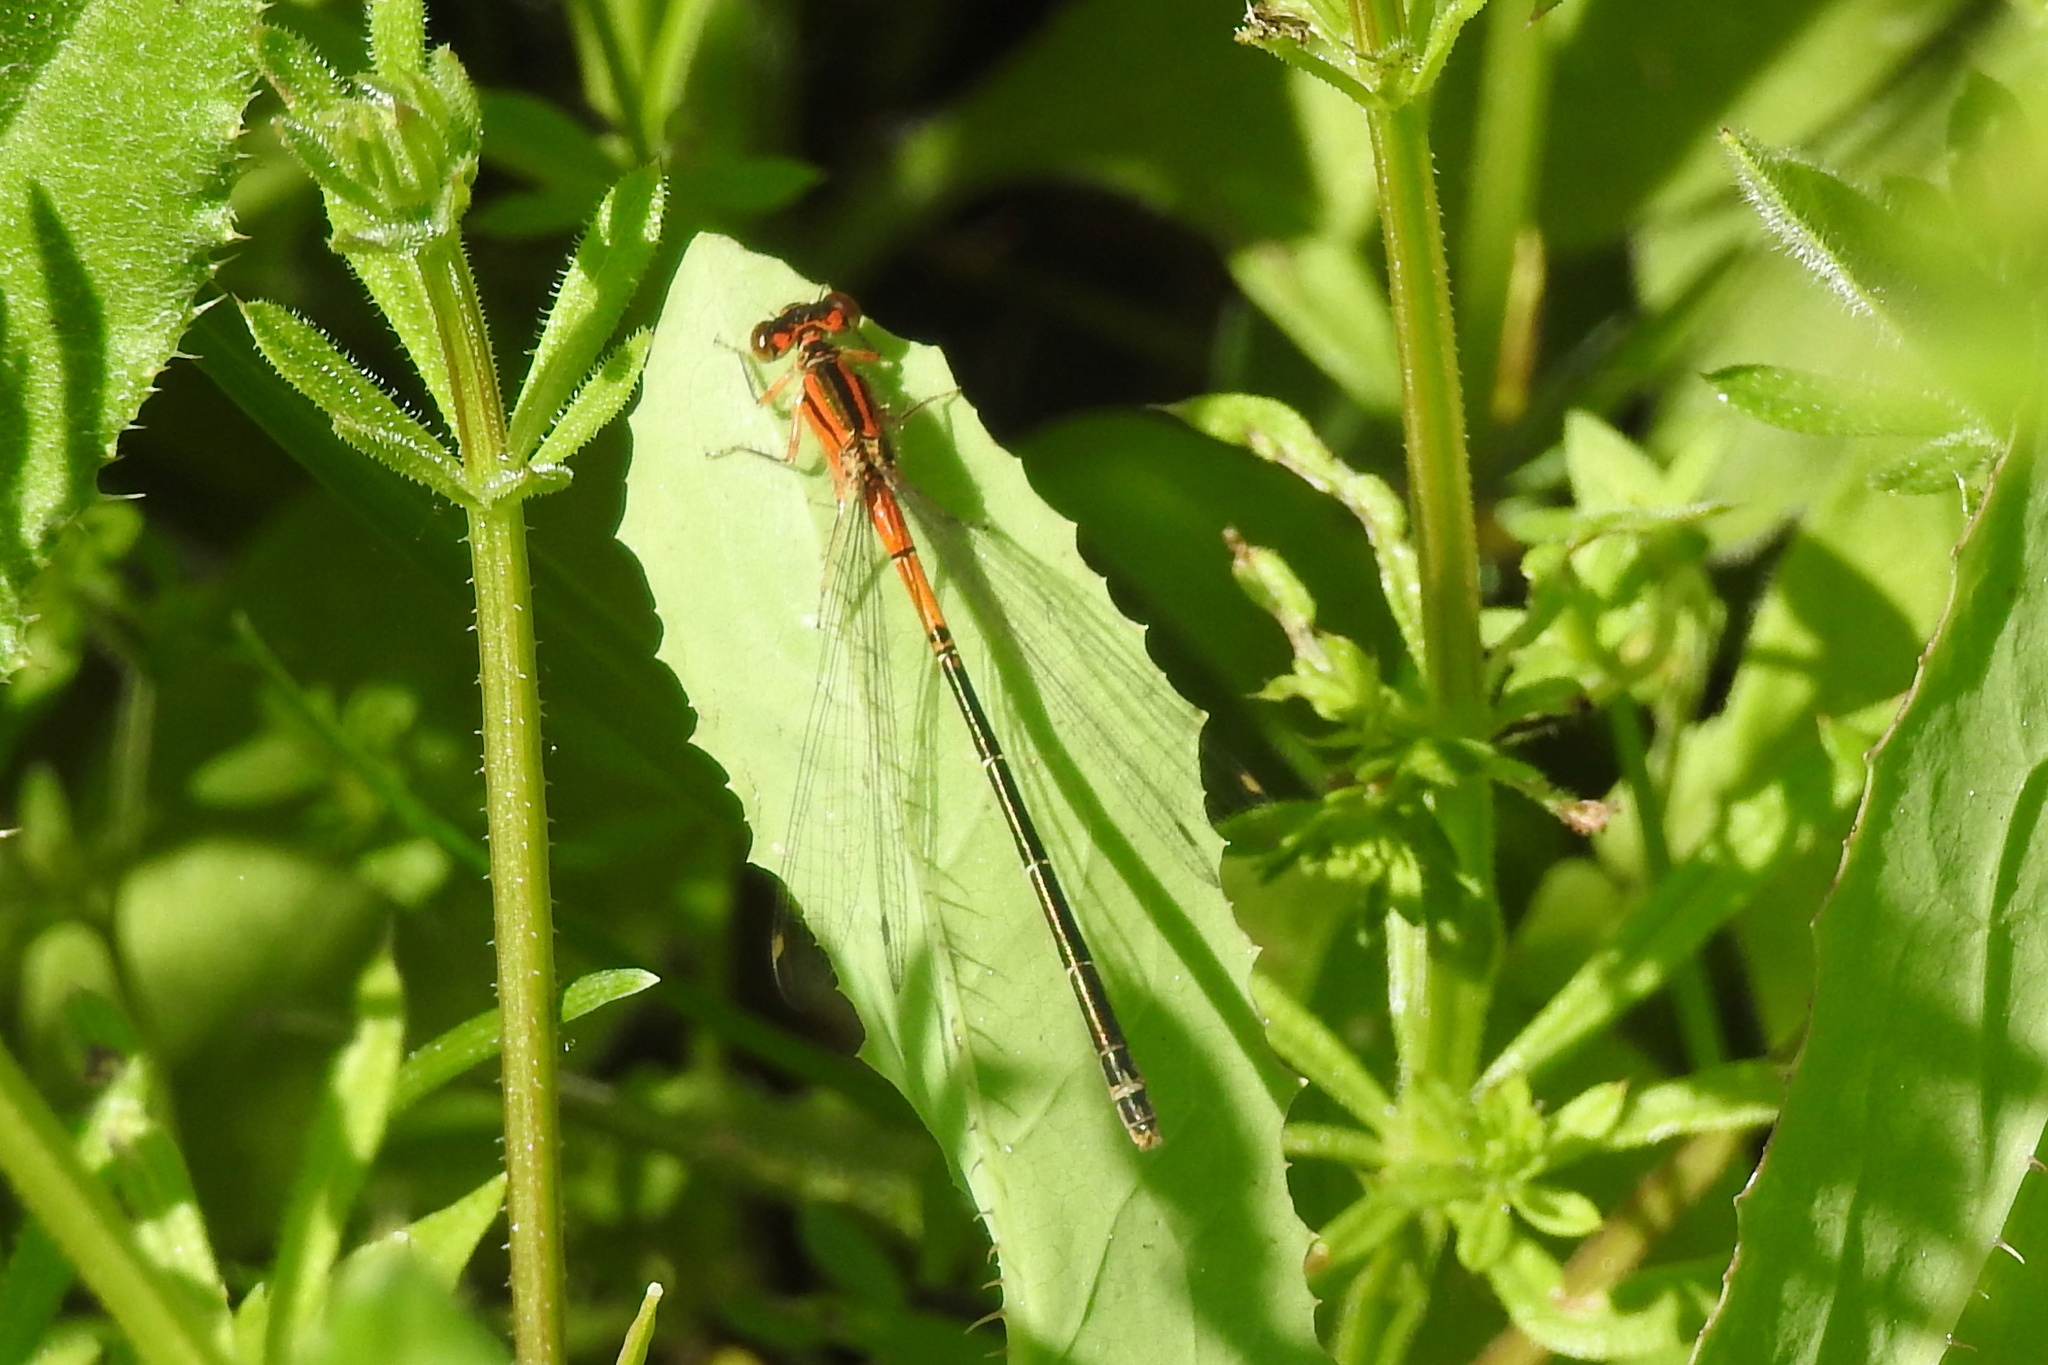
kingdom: Animalia
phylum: Arthropoda
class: Insecta
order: Odonata
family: Coenagrionidae
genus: Ischnura
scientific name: Ischnura verticalis
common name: Eastern forktail
